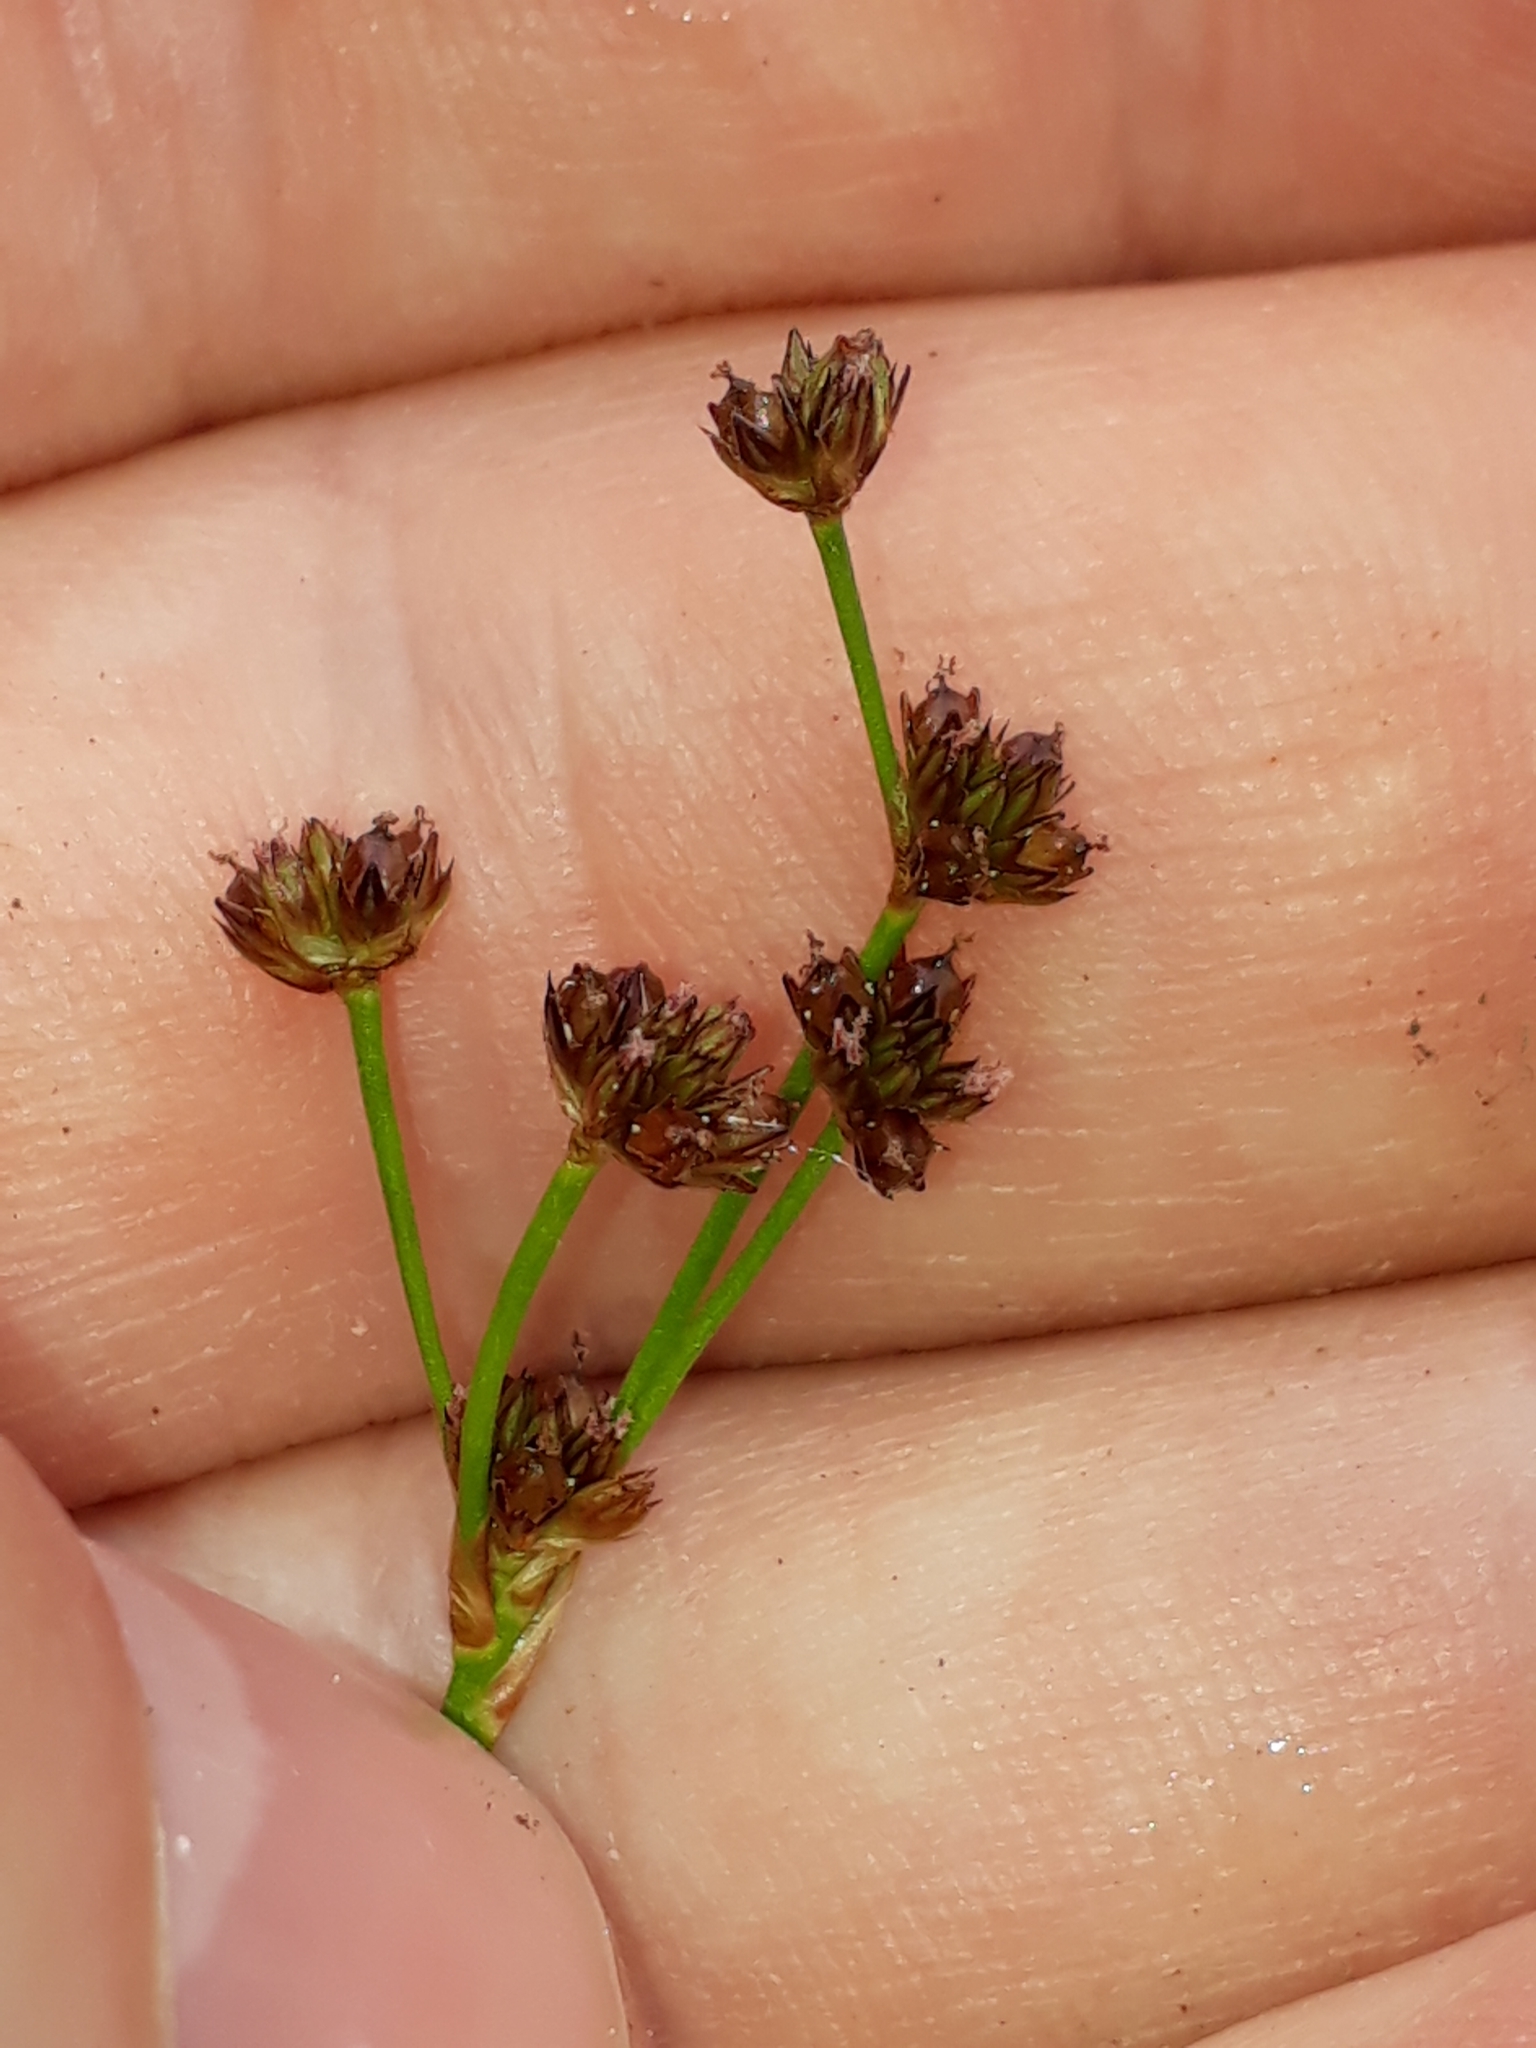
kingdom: Plantae
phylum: Tracheophyta
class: Liliopsida
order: Poales
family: Juncaceae
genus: Juncus
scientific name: Juncus planifolius
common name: Broadleaf rush
